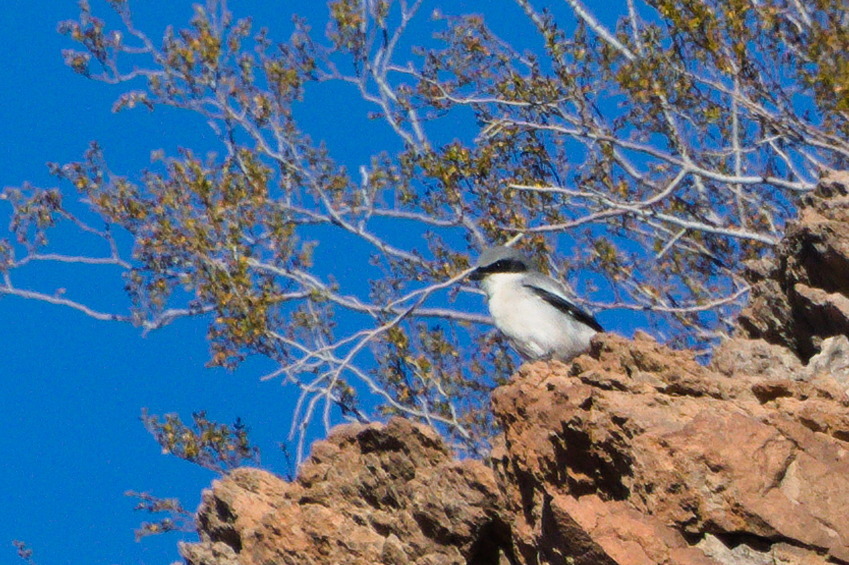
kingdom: Animalia
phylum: Chordata
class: Aves
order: Passeriformes
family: Laniidae
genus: Lanius
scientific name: Lanius ludovicianus
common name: Loggerhead shrike
